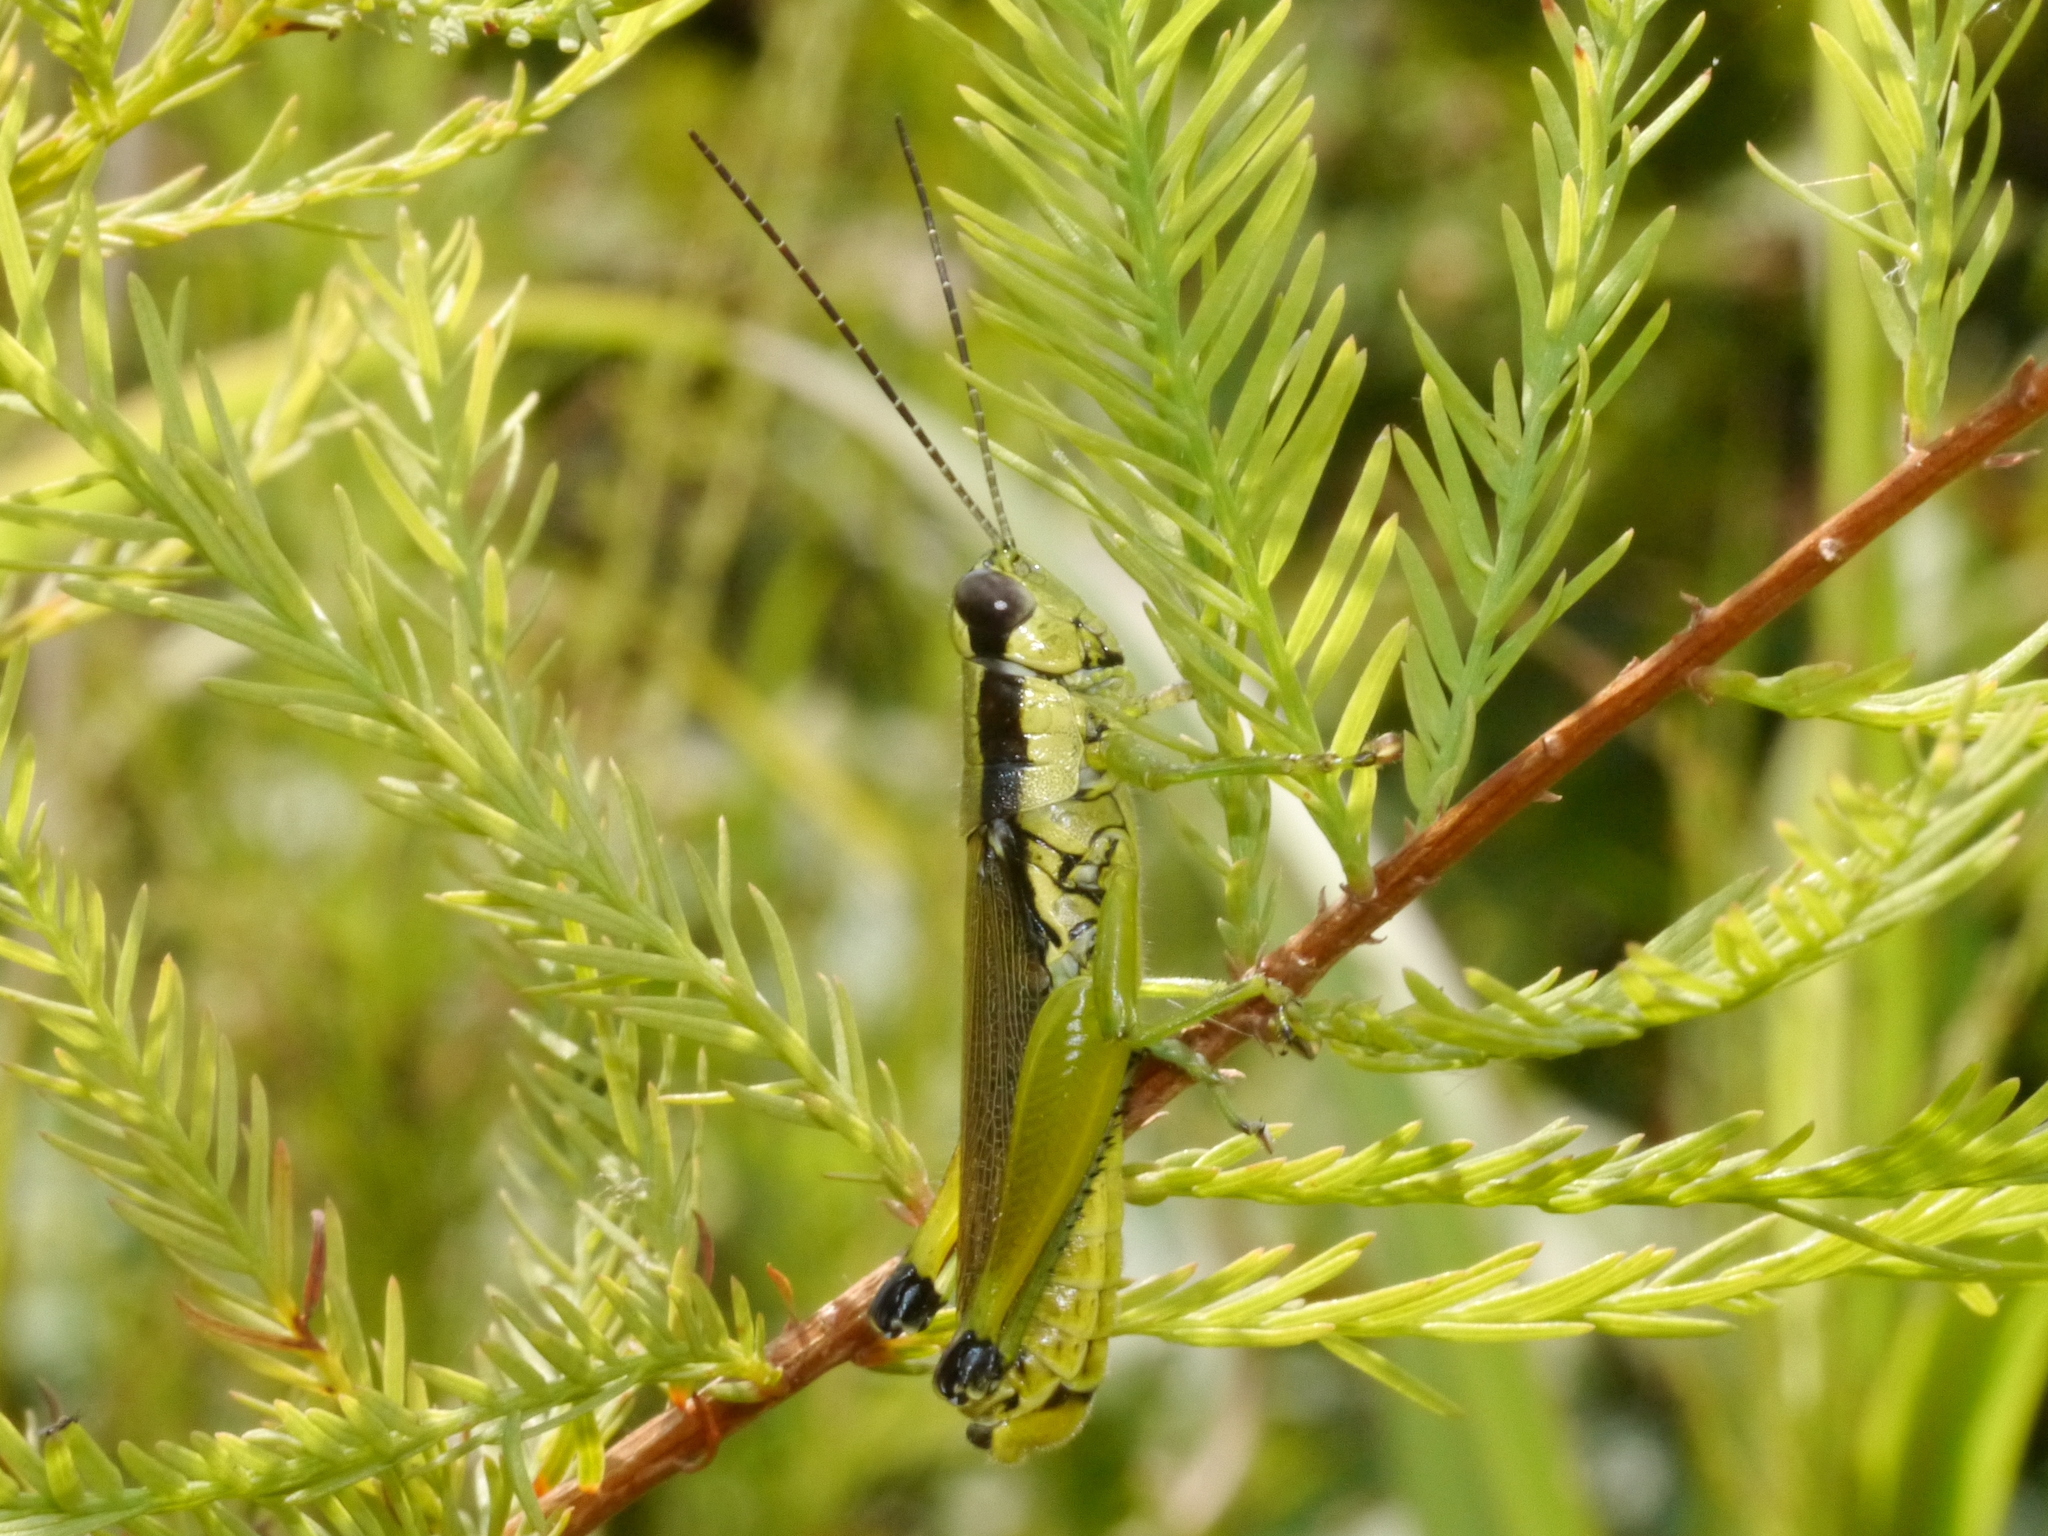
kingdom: Animalia
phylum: Arthropoda
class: Insecta
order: Orthoptera
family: Acrididae
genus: Paroxya
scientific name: Paroxya clavuligera
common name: Olive-green swamp grasshopper
